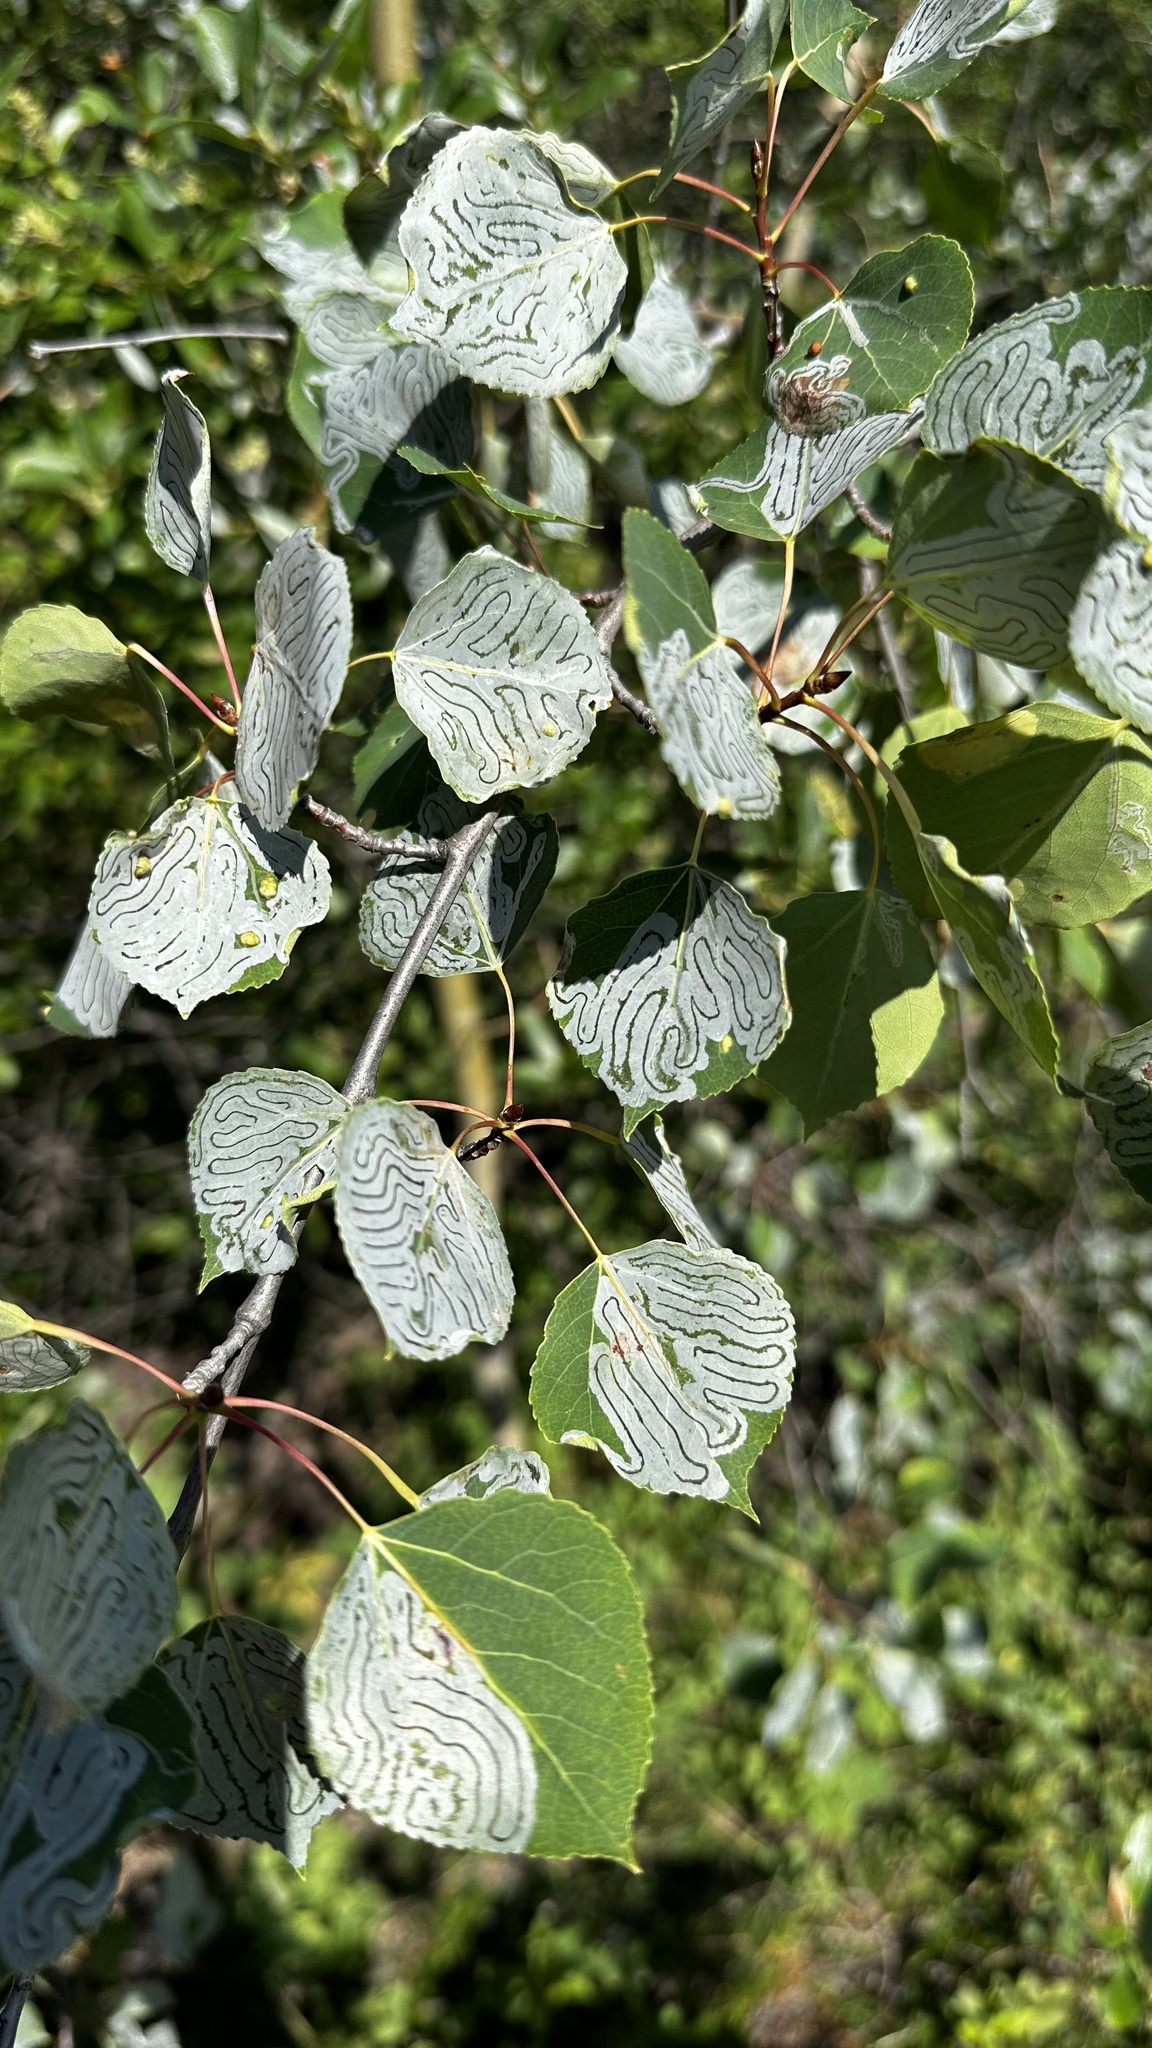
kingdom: Animalia
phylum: Arthropoda
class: Insecta
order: Lepidoptera
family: Gracillariidae
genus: Phyllocnistis
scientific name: Phyllocnistis populiella
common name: Aspen serpentine leafminer moth
